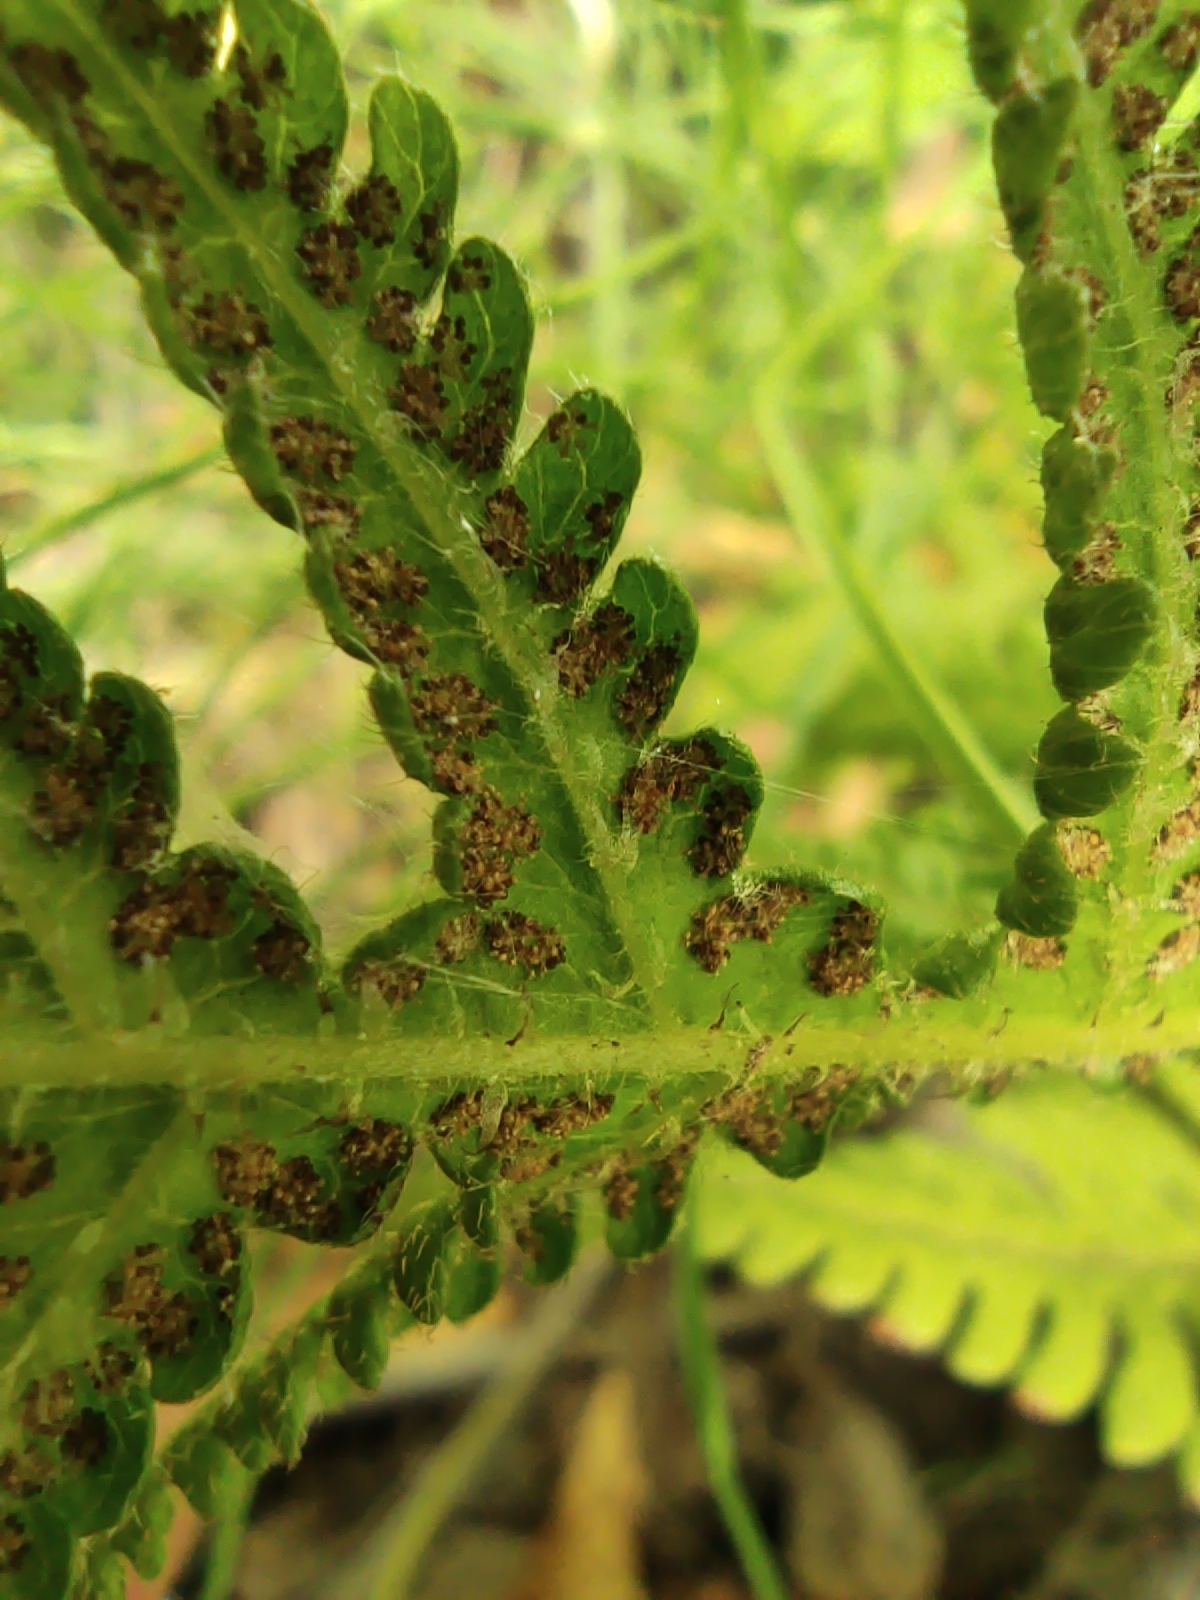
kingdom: Plantae
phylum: Tracheophyta
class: Polypodiopsida
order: Polypodiales
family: Thelypteridaceae
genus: Phegopteris
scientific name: Phegopteris connectilis
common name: Beech fern
